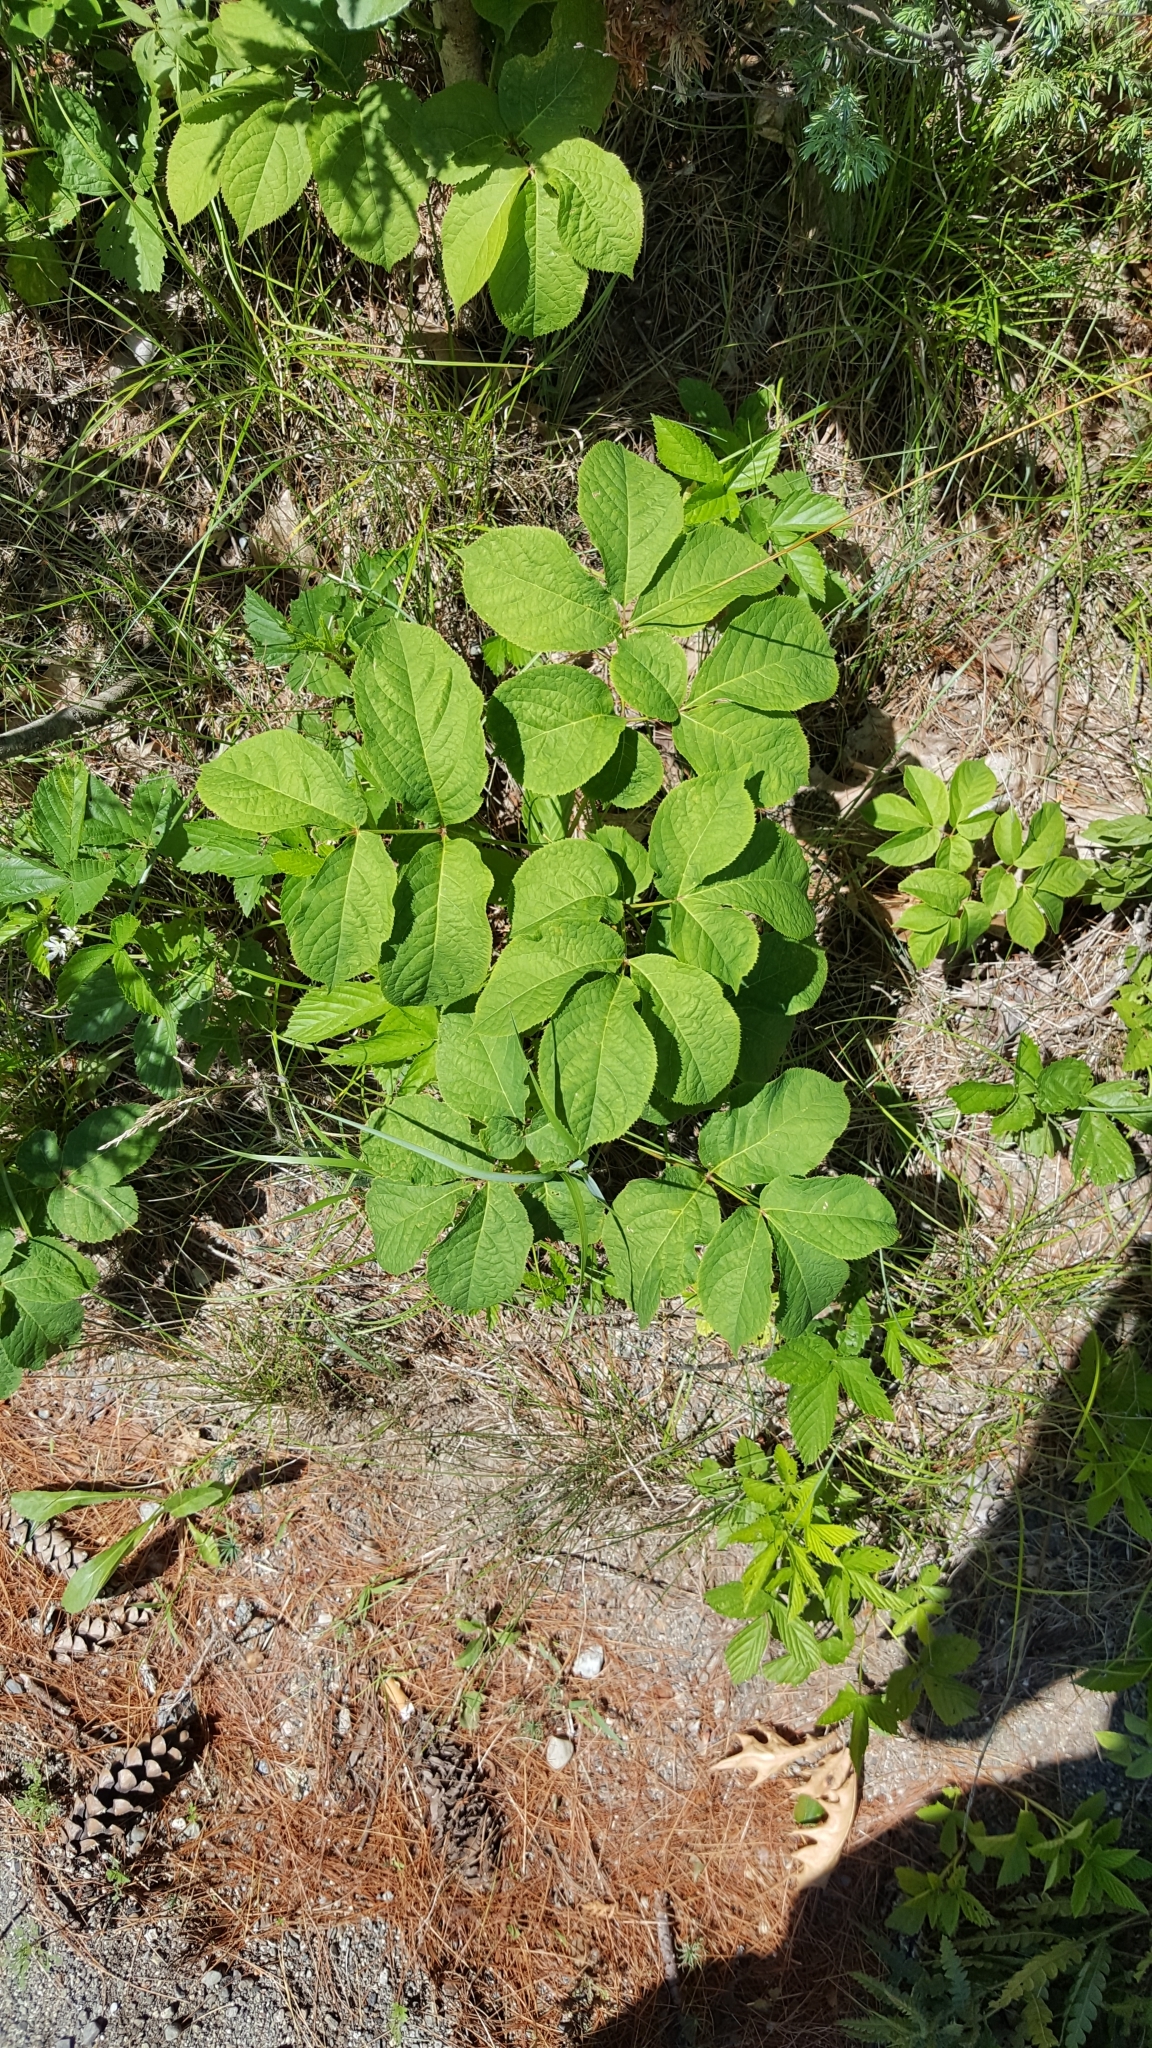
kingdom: Plantae
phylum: Tracheophyta
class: Magnoliopsida
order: Apiales
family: Araliaceae
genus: Aralia
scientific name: Aralia nudicaulis
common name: Wild sarsaparilla
